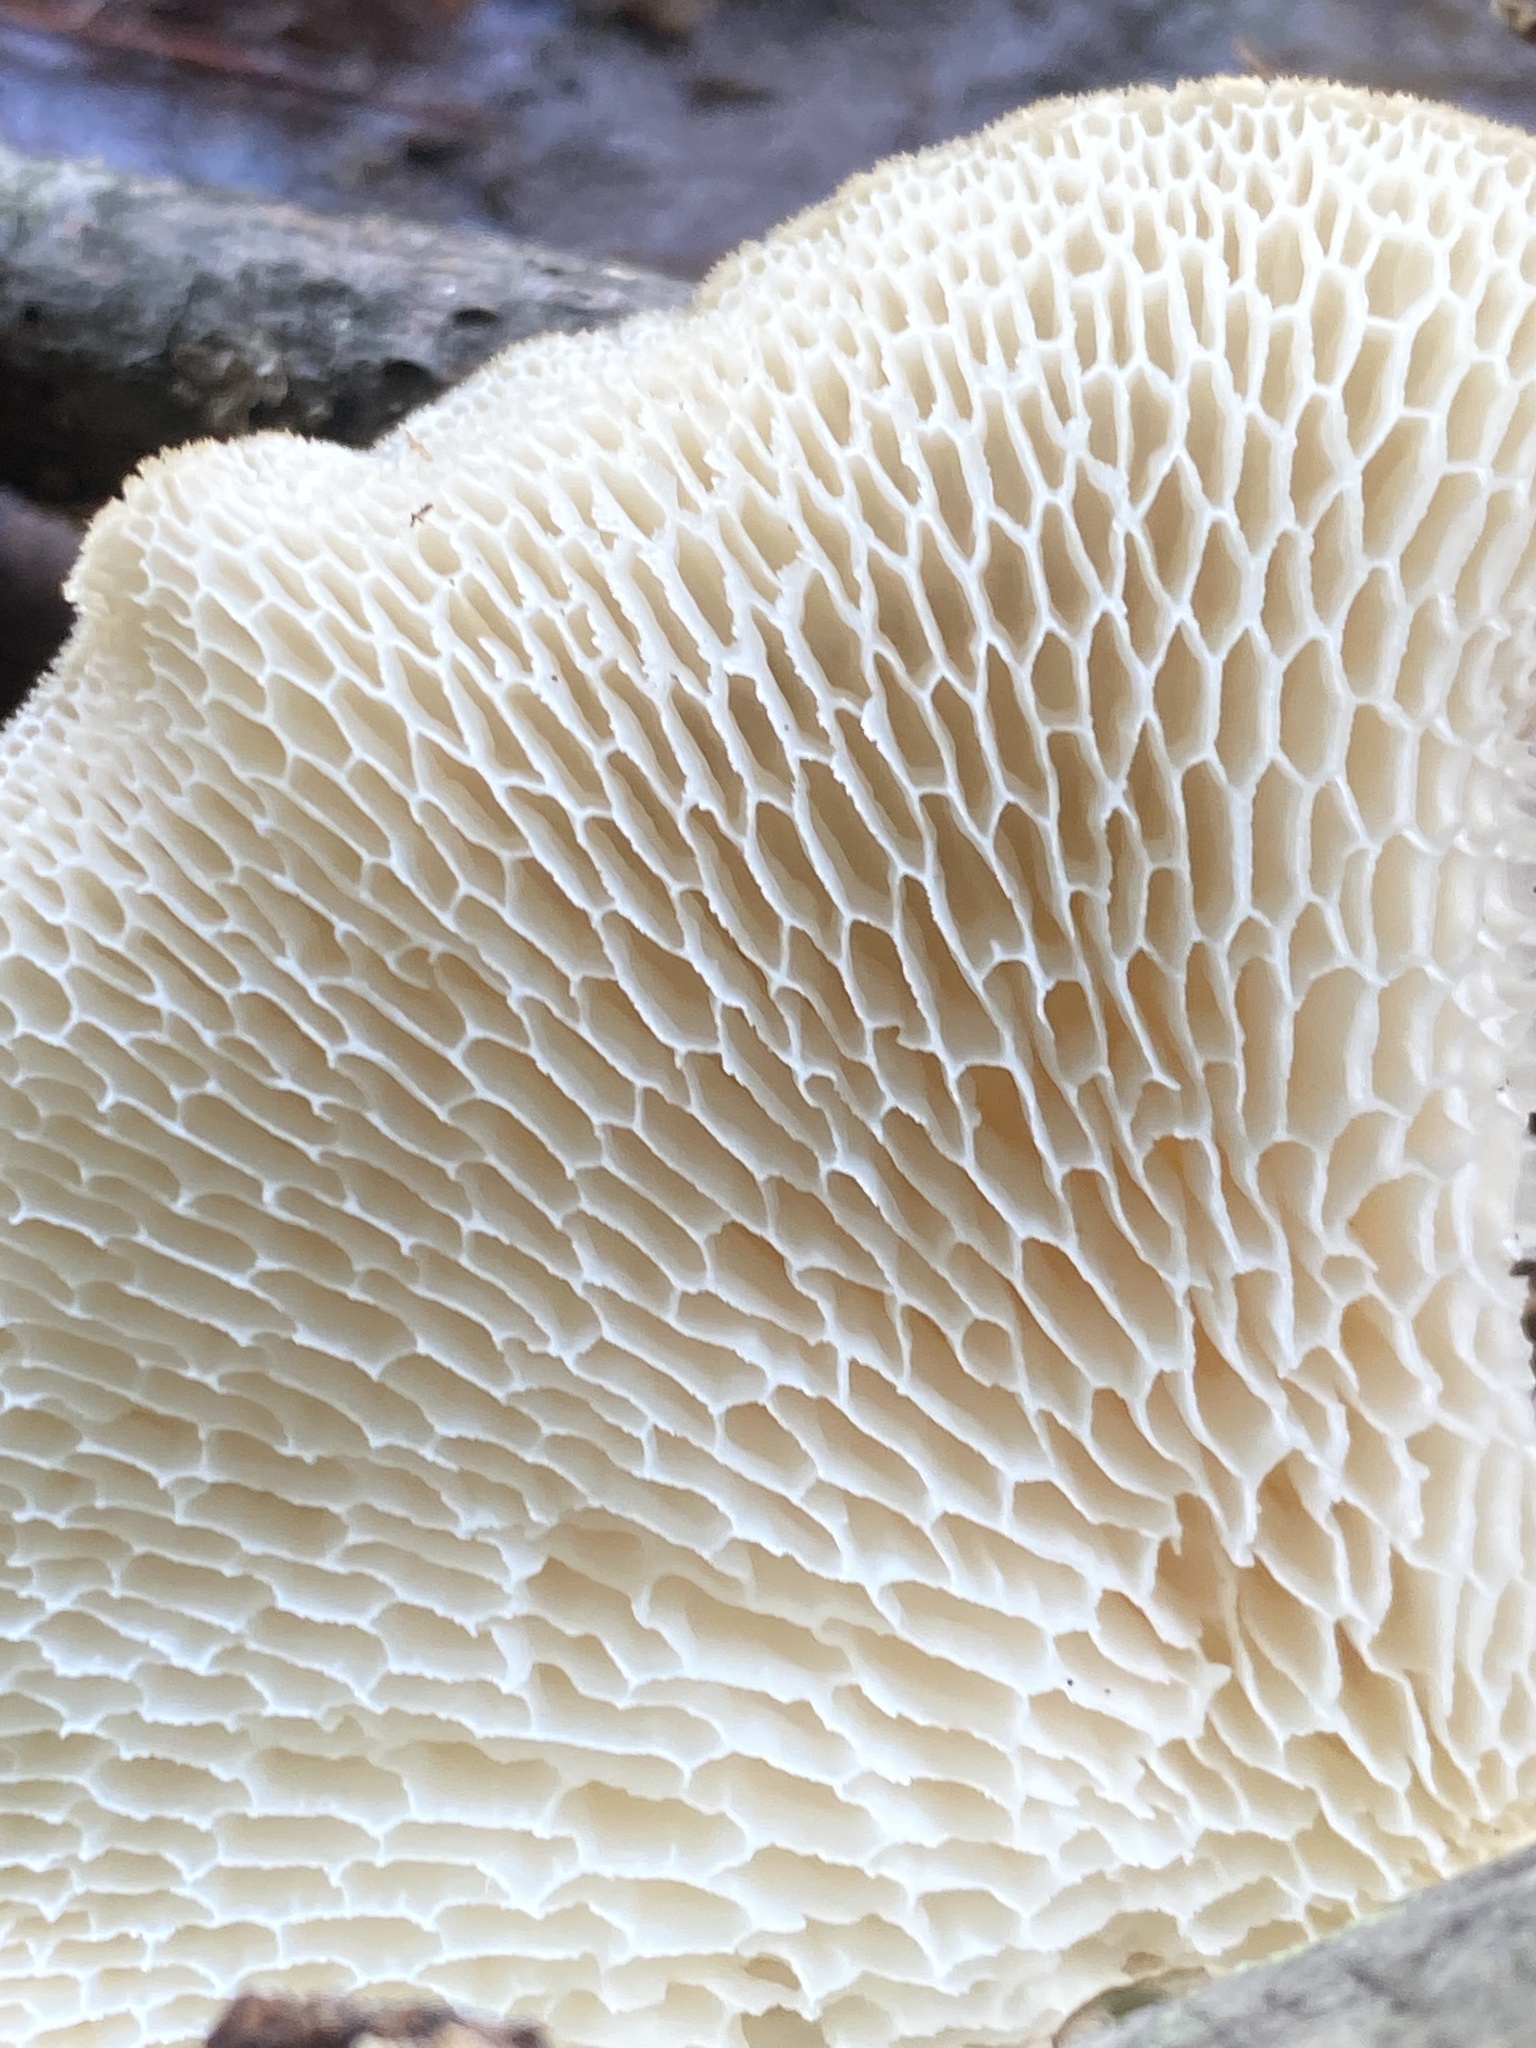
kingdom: Fungi
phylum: Basidiomycota
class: Agaricomycetes
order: Polyporales
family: Polyporaceae
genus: Neofavolus
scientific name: Neofavolus americanus
